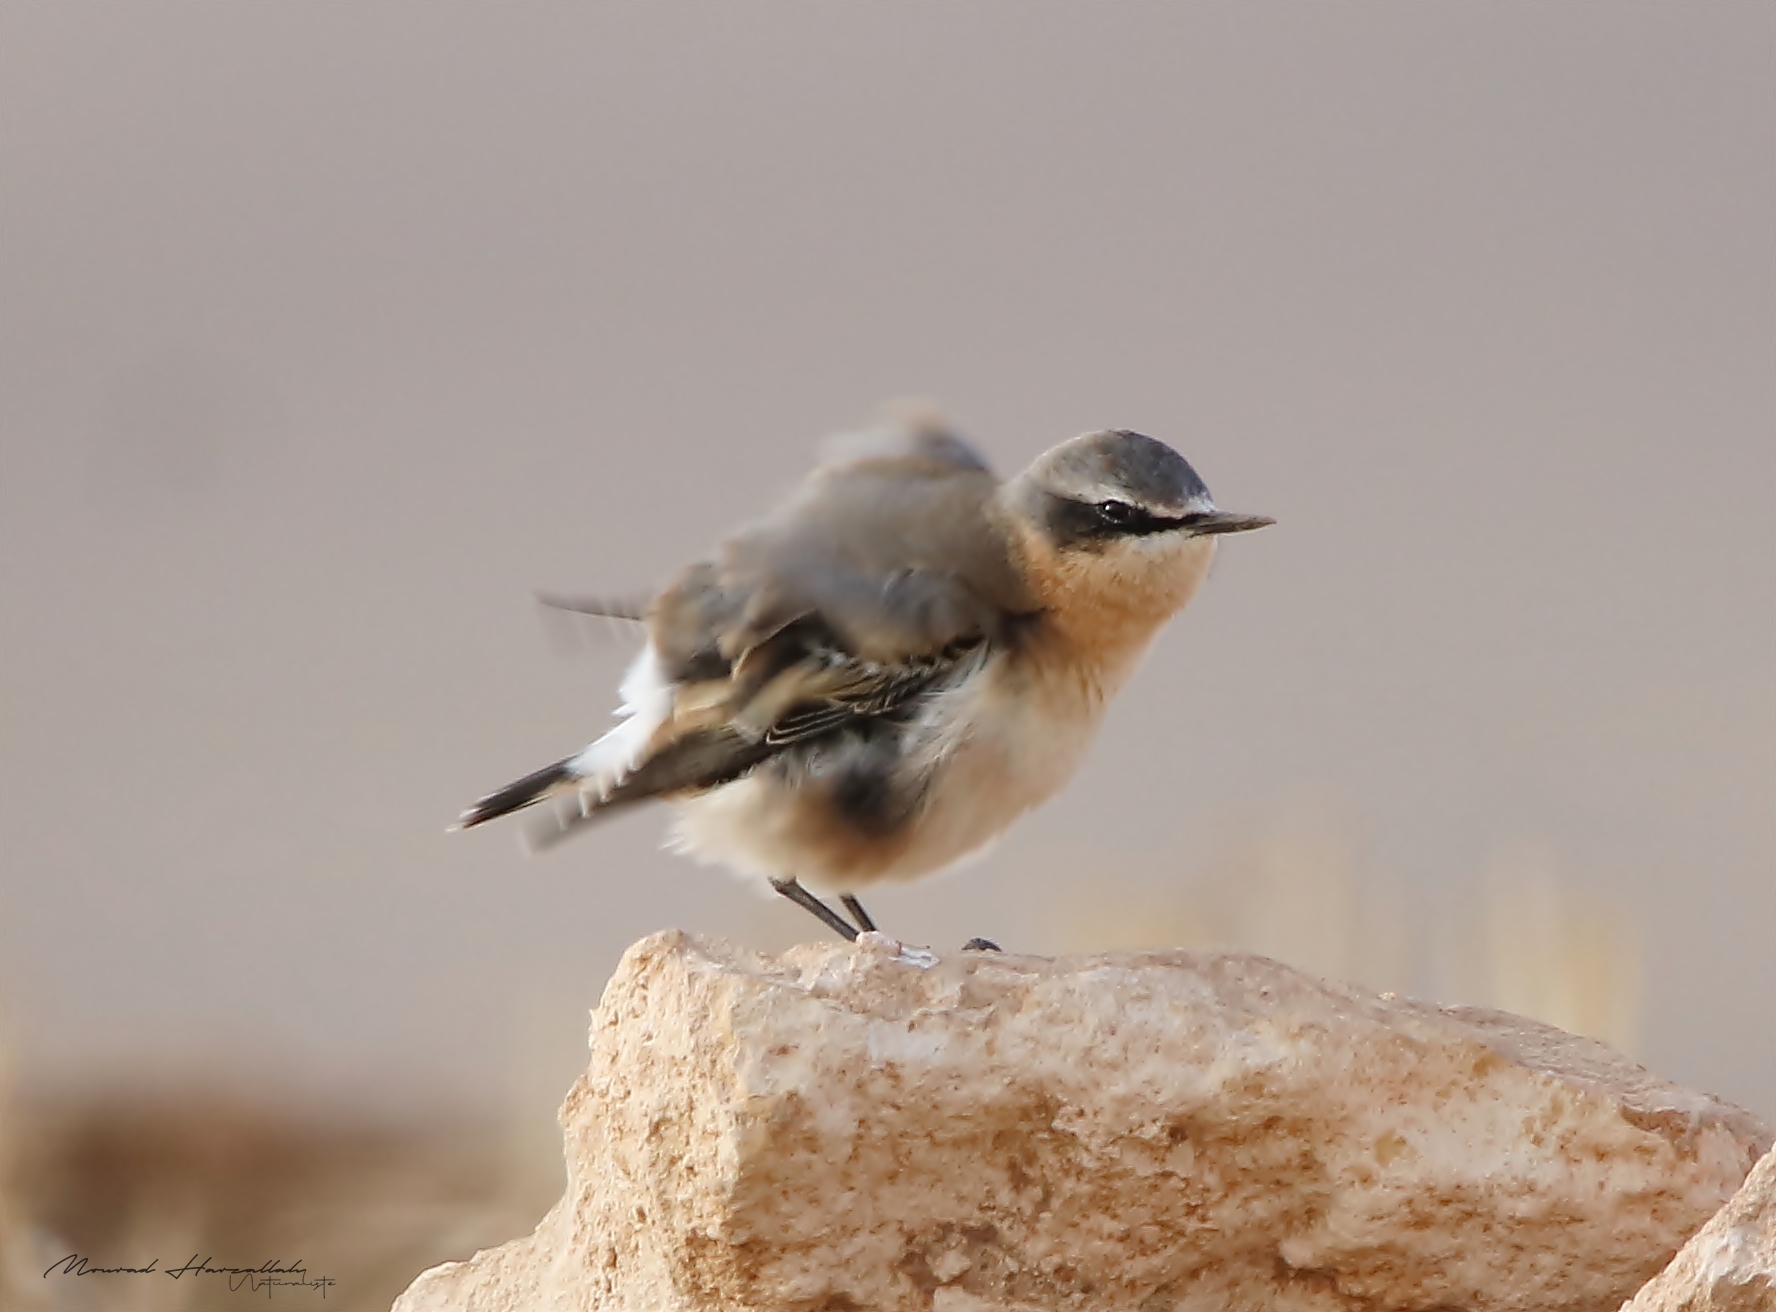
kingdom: Animalia
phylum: Chordata
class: Aves
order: Passeriformes
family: Muscicapidae
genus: Oenanthe
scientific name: Oenanthe oenanthe
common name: Northern wheatear
